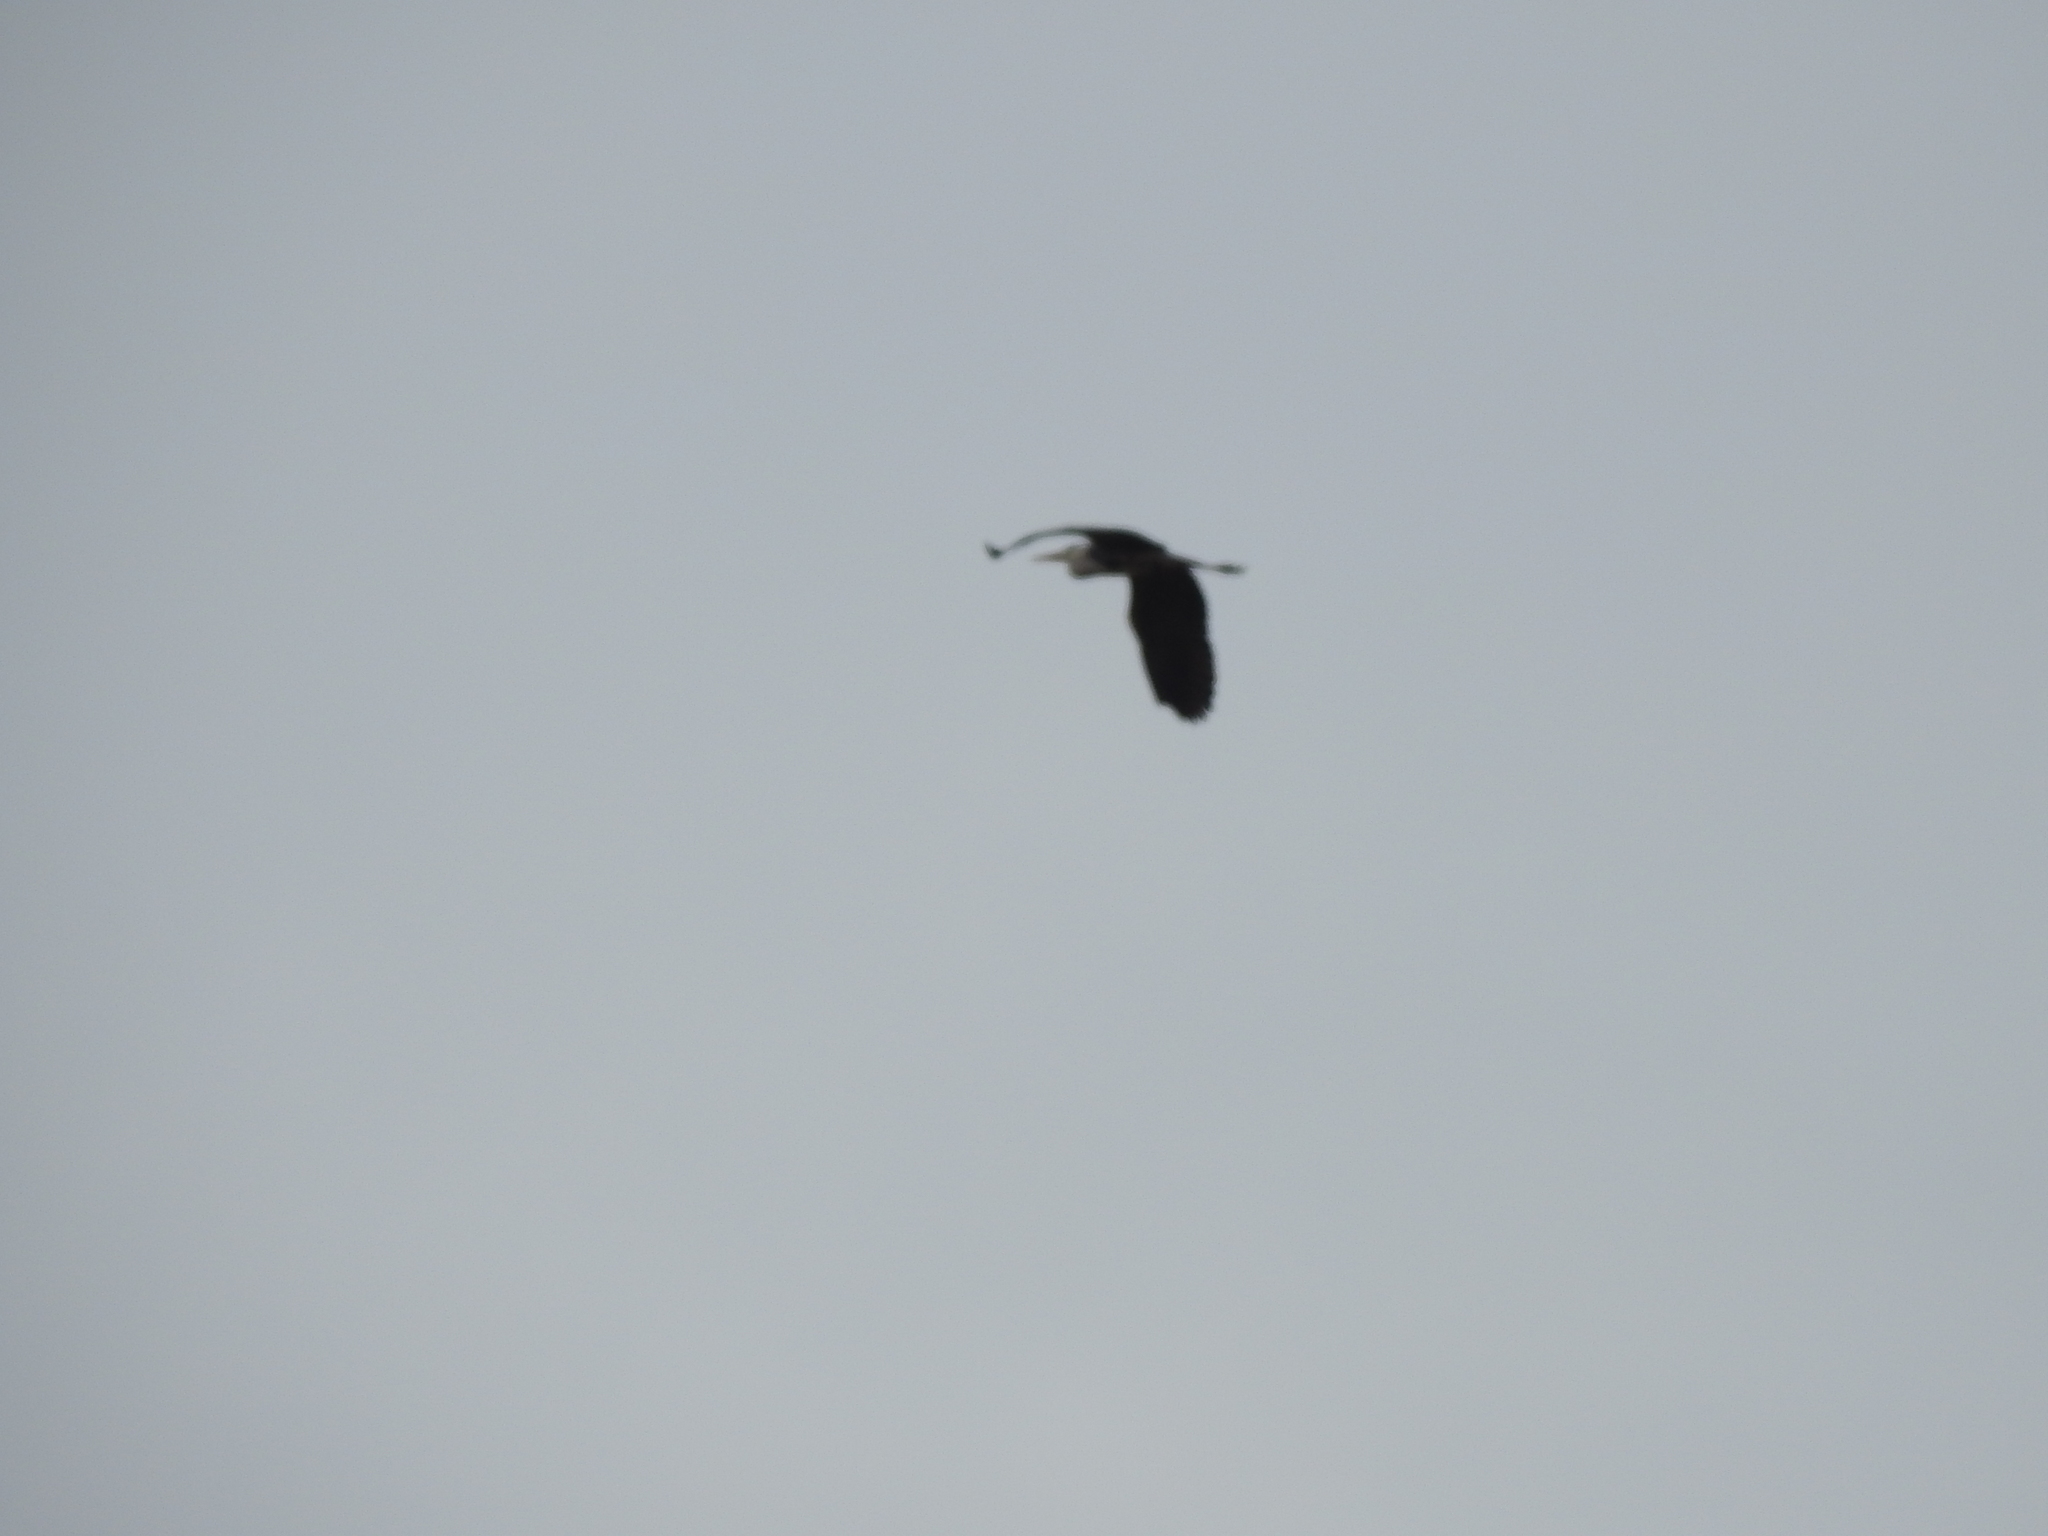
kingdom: Animalia
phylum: Chordata
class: Aves
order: Pelecaniformes
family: Ardeidae
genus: Ardea
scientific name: Ardea cinerea
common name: Grey heron
